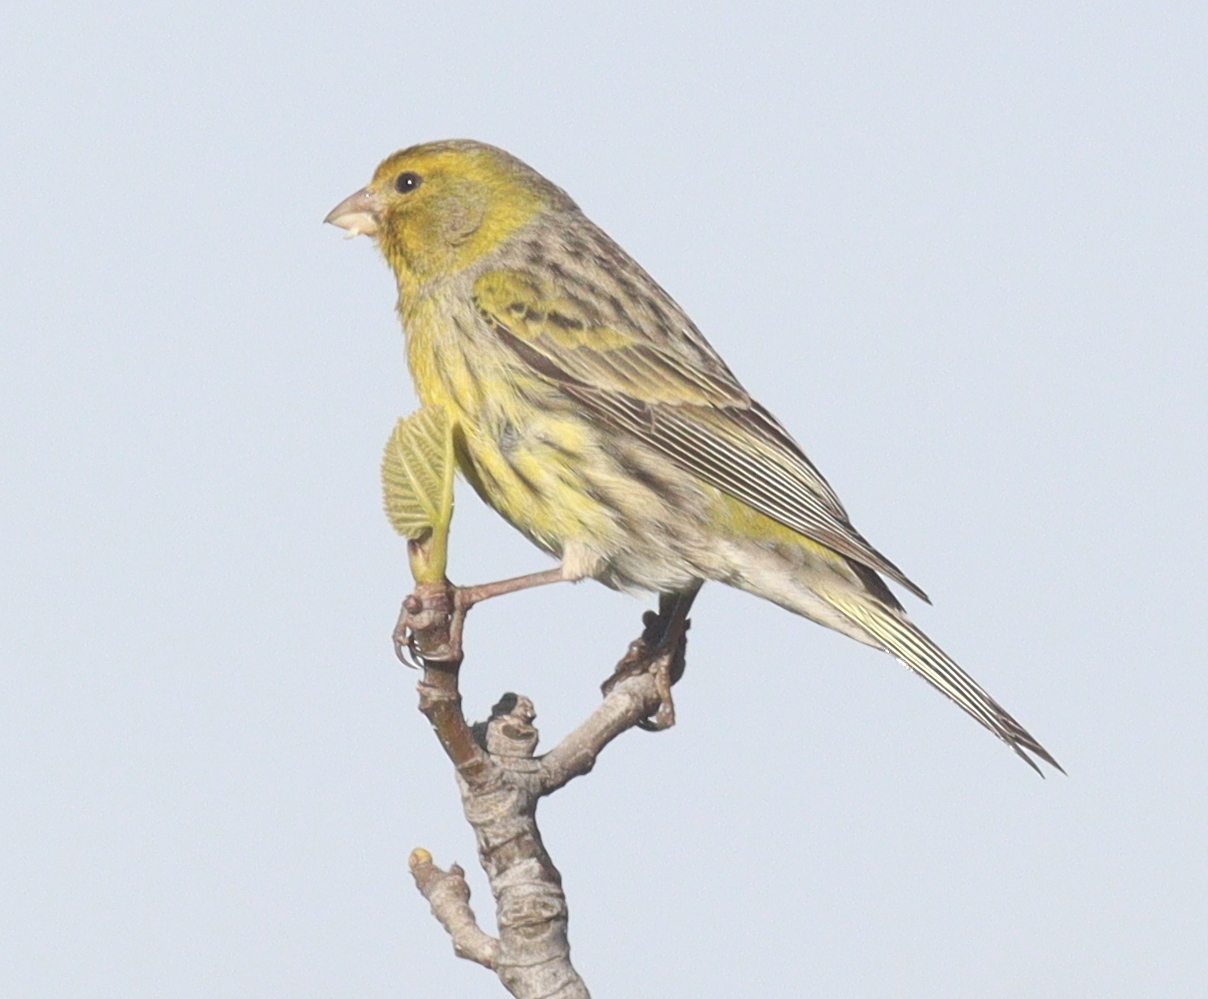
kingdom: Animalia
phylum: Chordata
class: Aves
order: Passeriformes
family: Fringillidae
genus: Serinus
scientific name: Serinus canaria
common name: Atlantic canary
